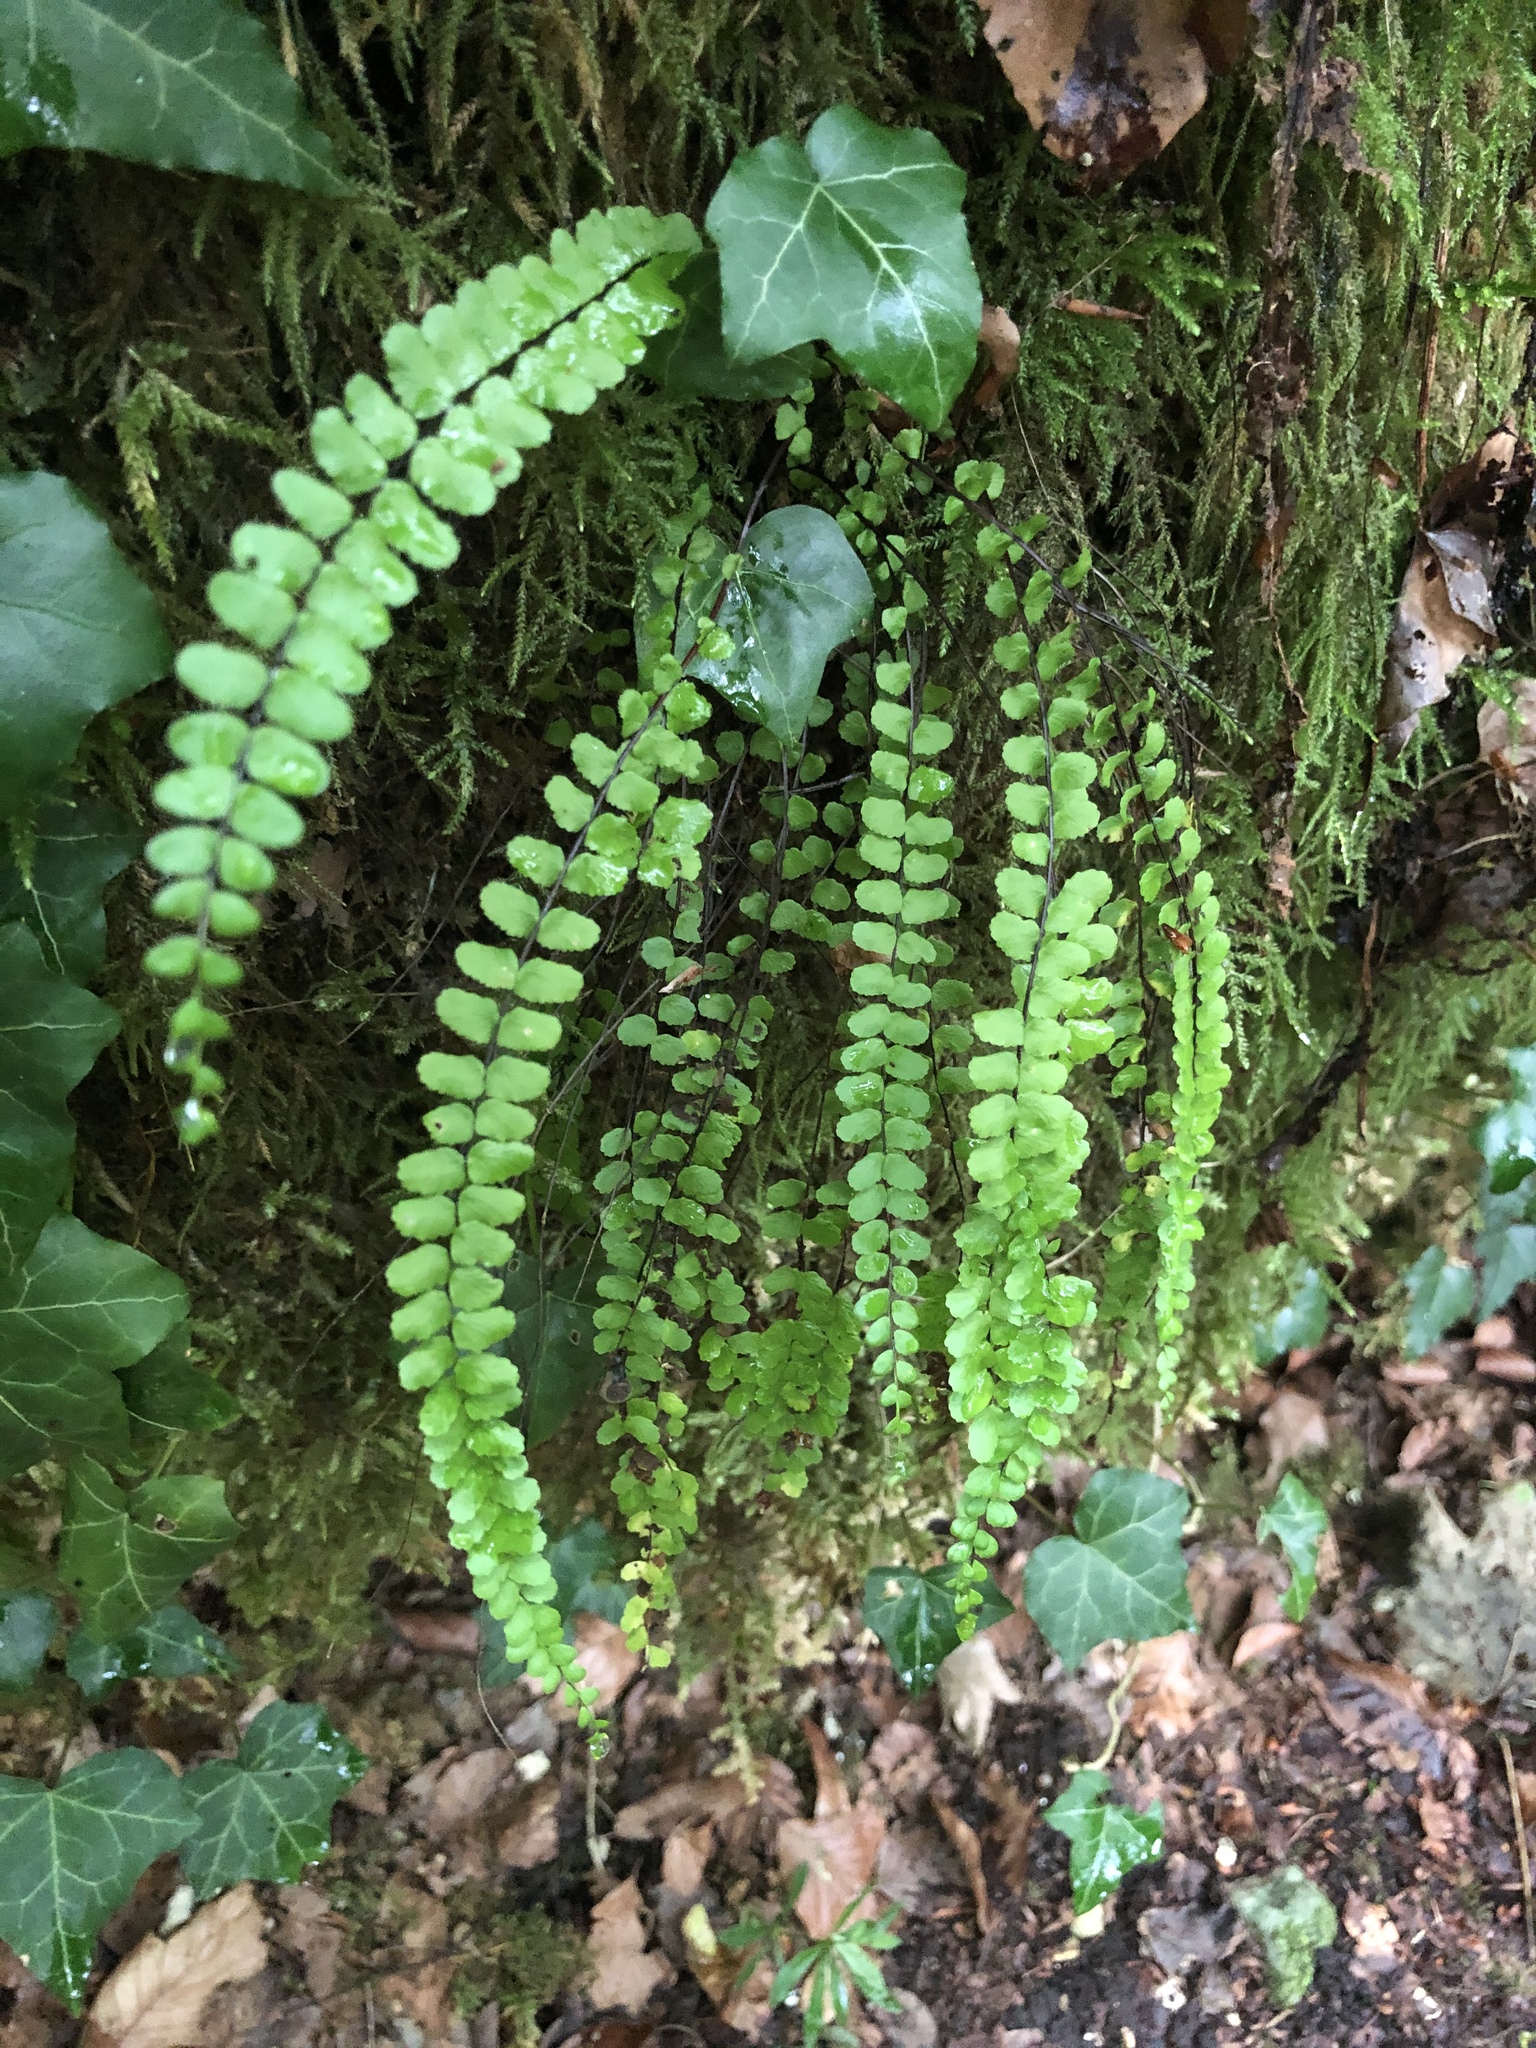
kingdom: Plantae
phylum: Tracheophyta
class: Polypodiopsida
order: Polypodiales
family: Aspleniaceae
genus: Asplenium
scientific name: Asplenium trichomanes
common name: Maidenhair spleenwort
